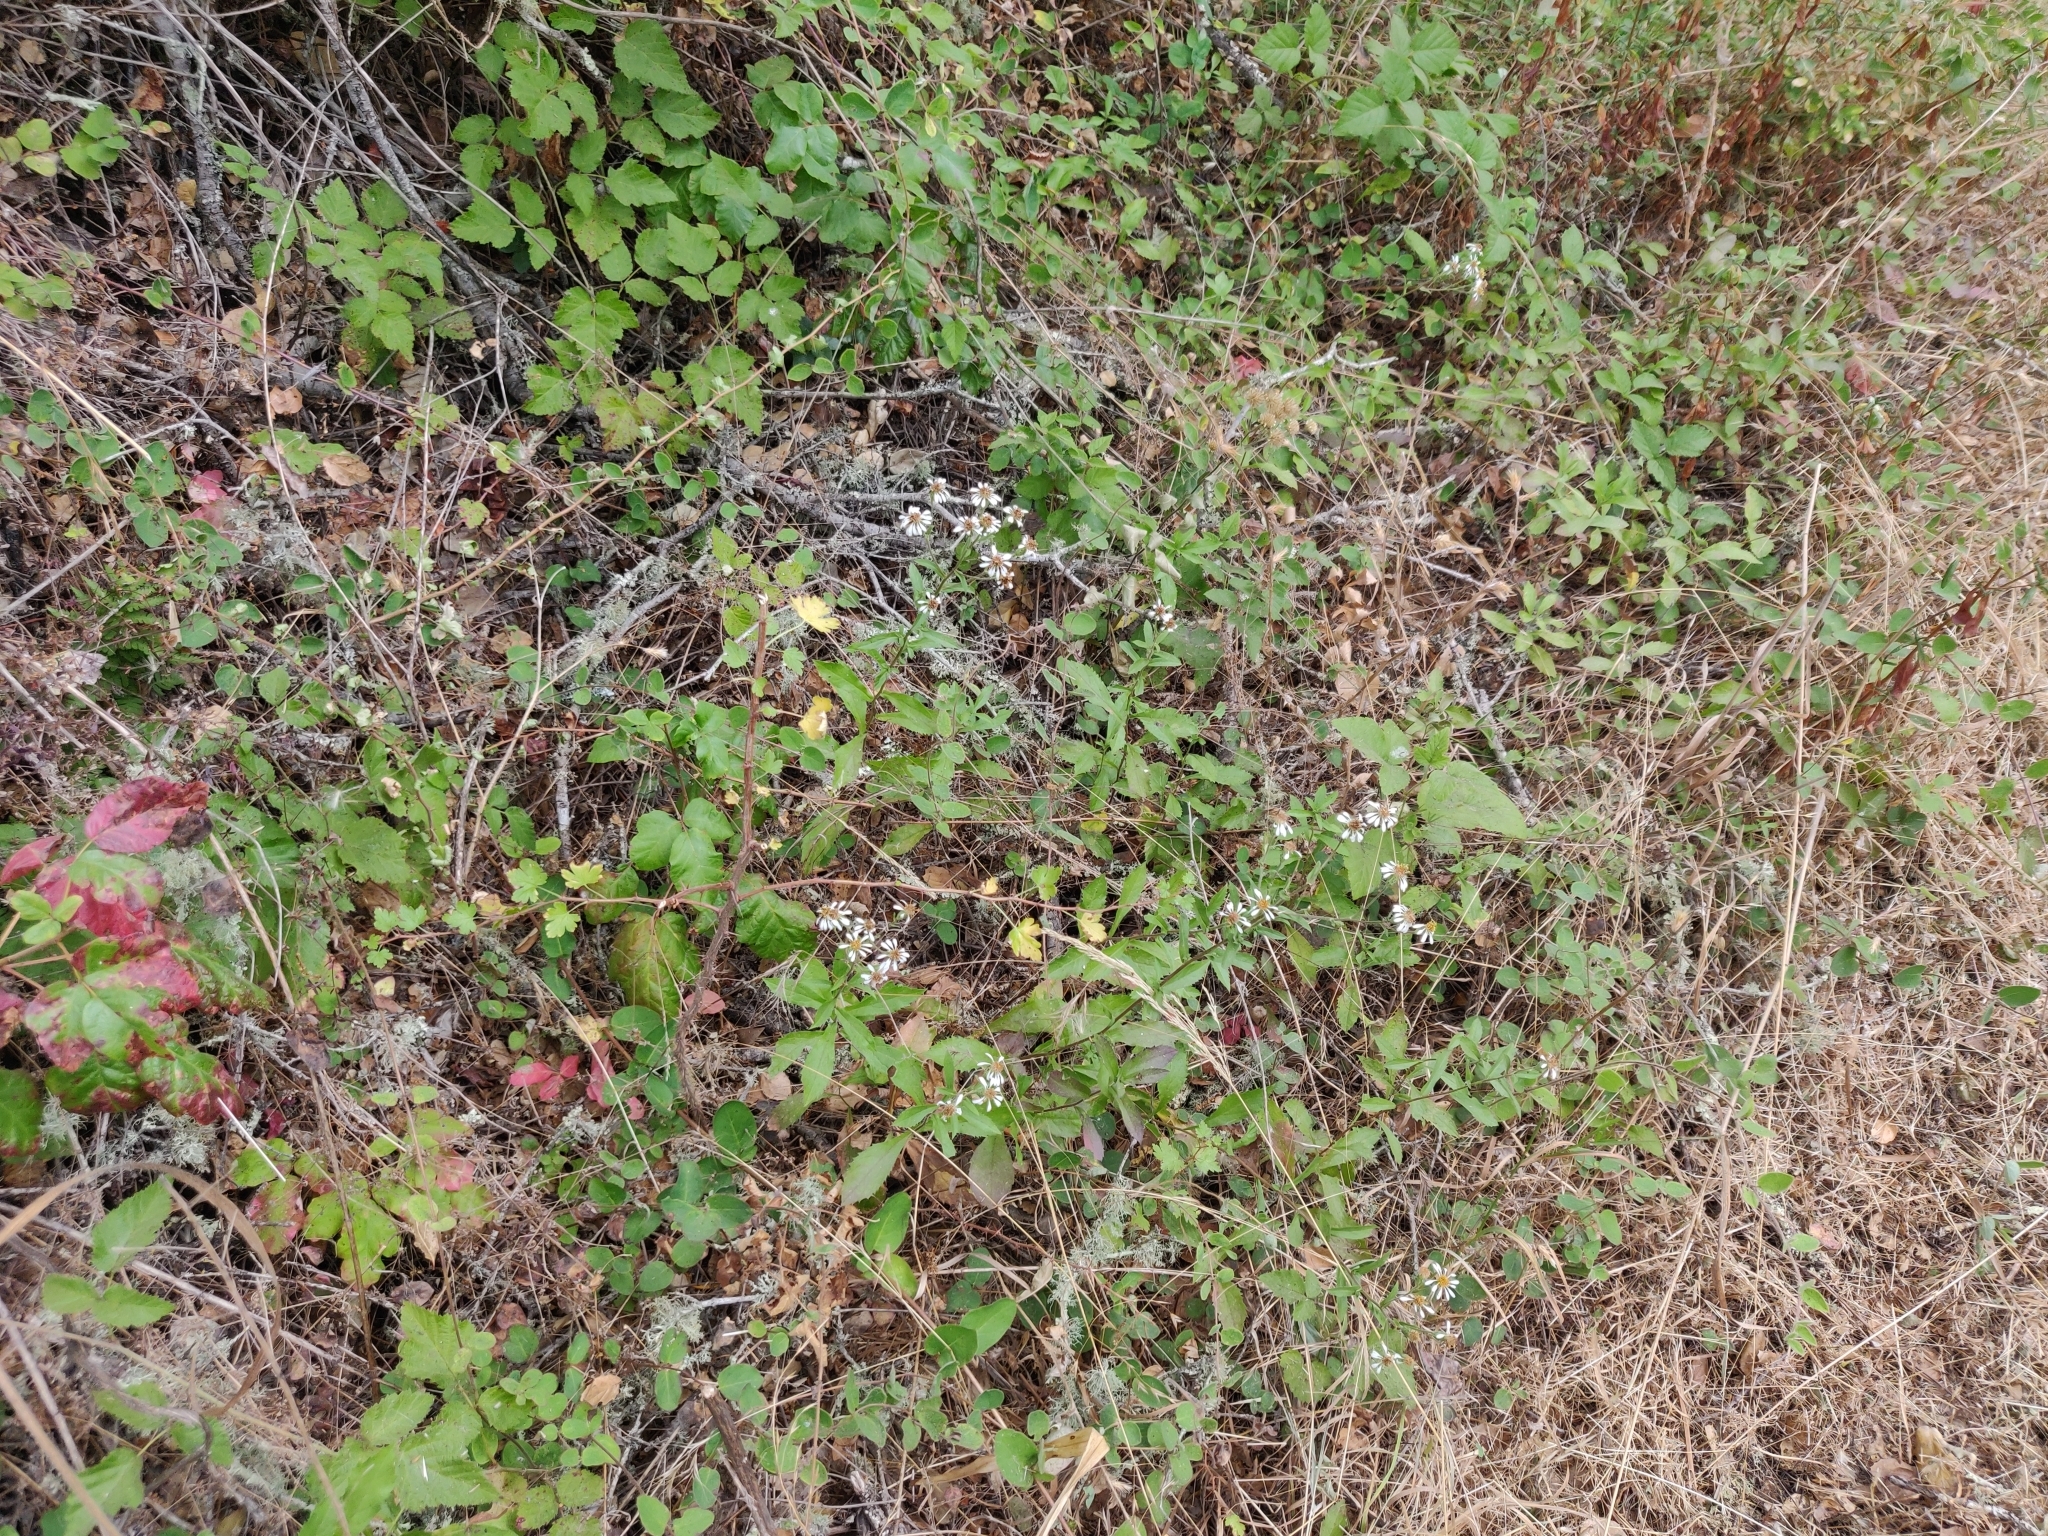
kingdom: Plantae
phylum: Tracheophyta
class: Magnoliopsida
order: Asterales
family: Asteraceae
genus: Eurybia
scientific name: Eurybia radulina
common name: Rough-leaved aster
